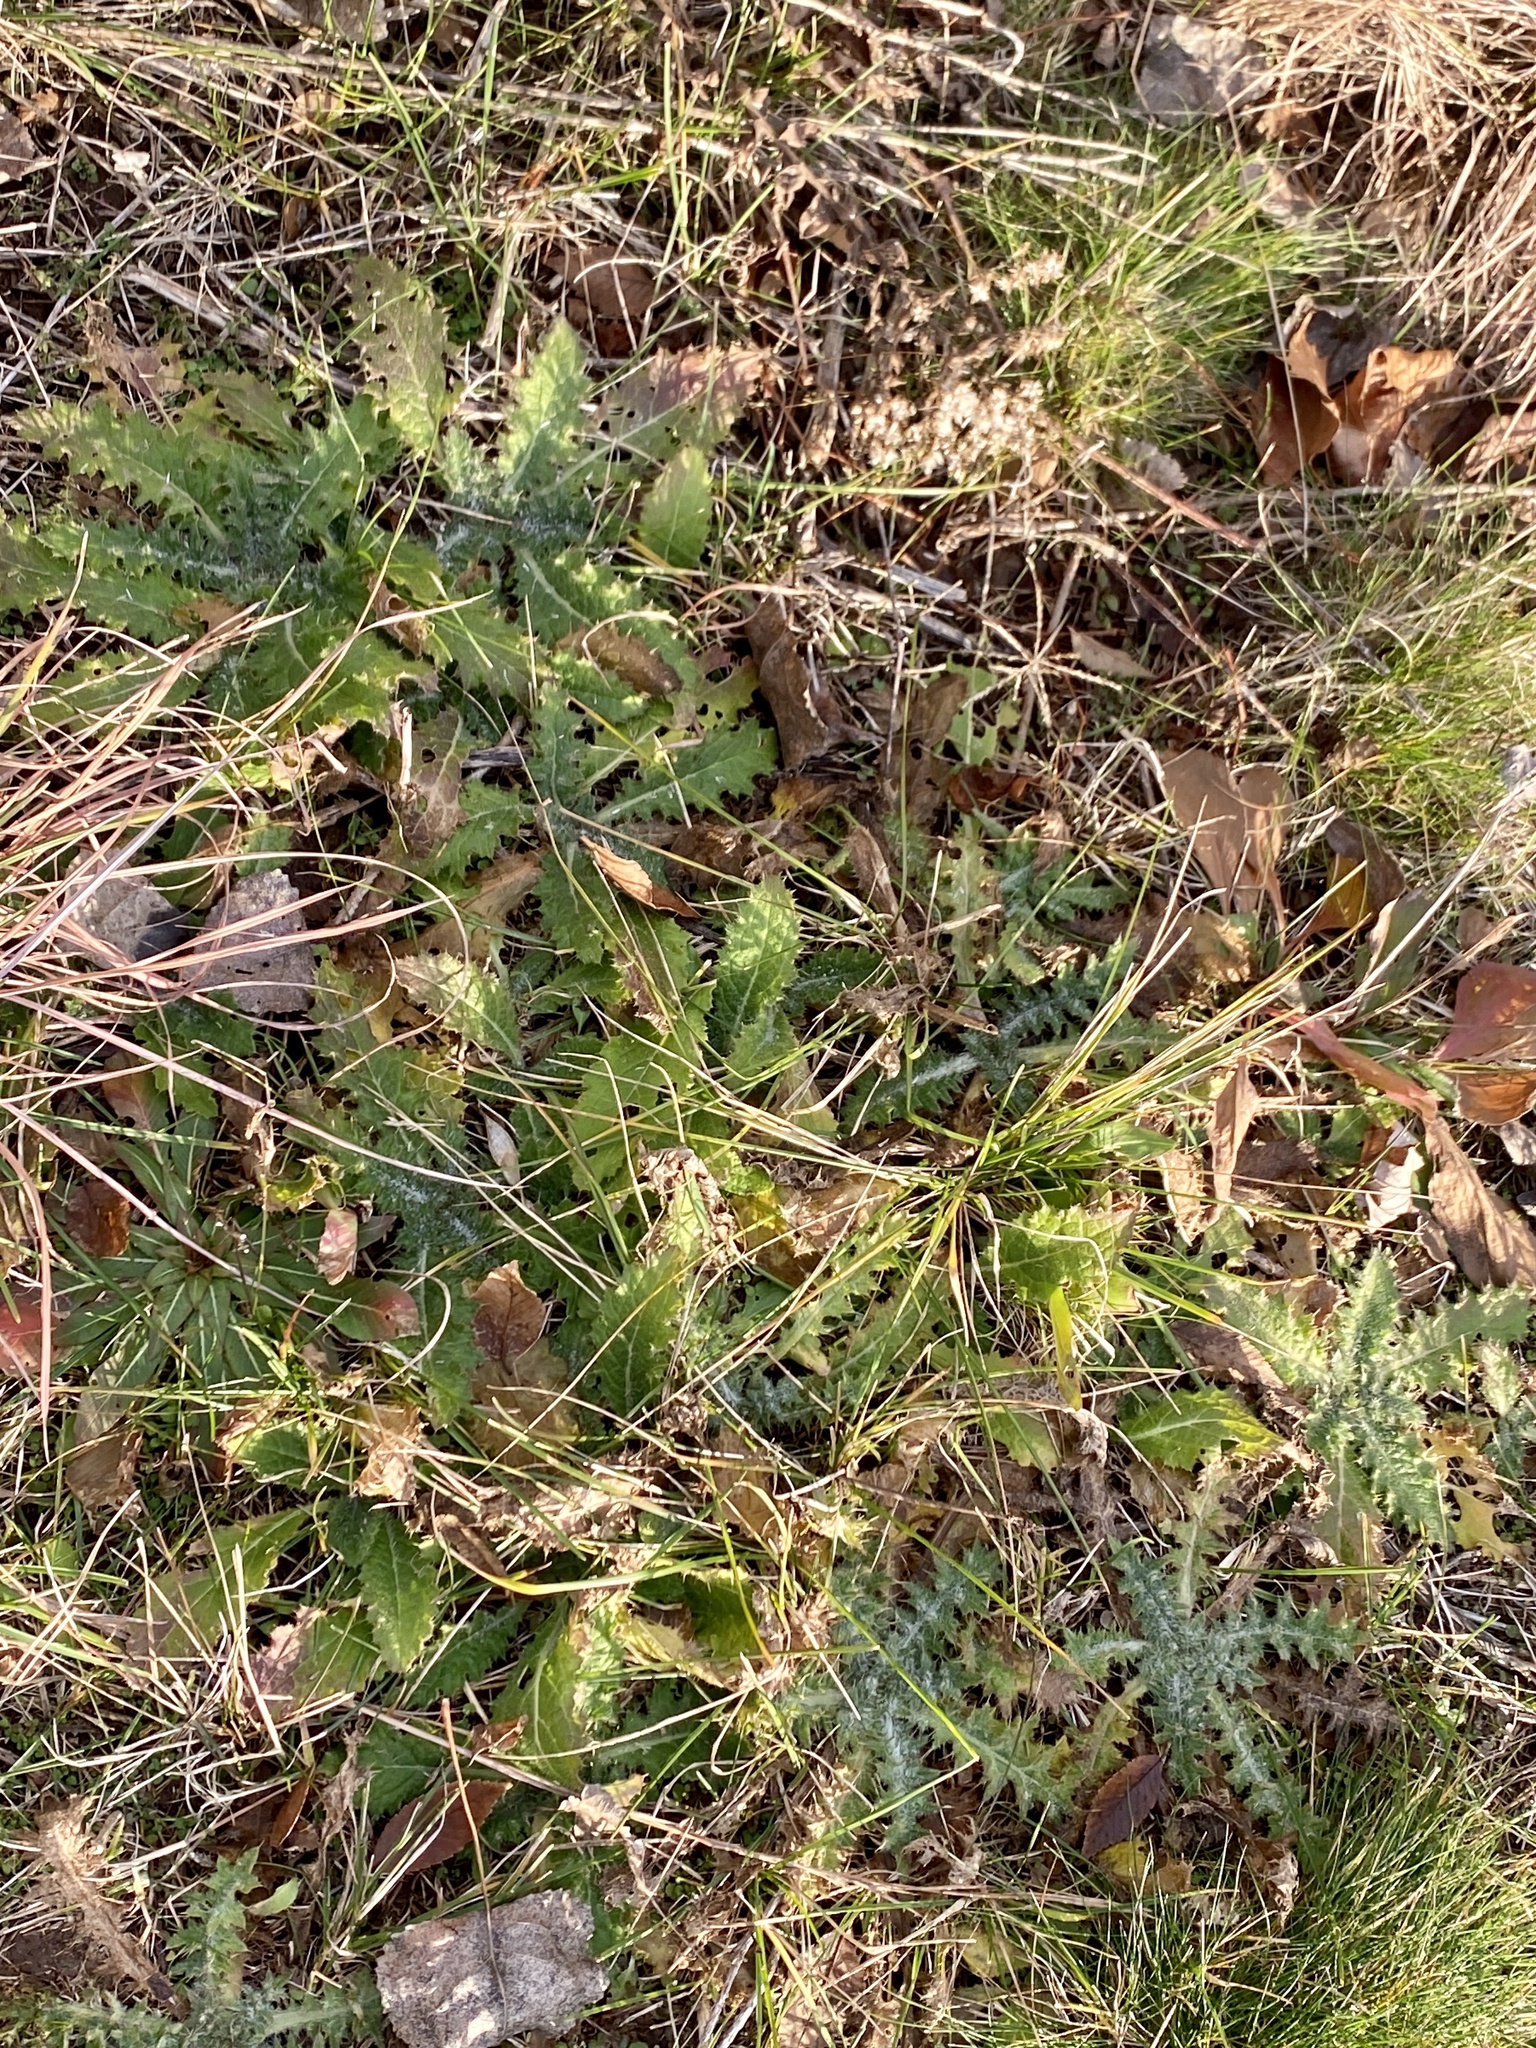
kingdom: Plantae
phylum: Tracheophyta
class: Magnoliopsida
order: Asterales
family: Asteraceae
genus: Cirsium
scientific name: Cirsium vulgare
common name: Bull thistle
